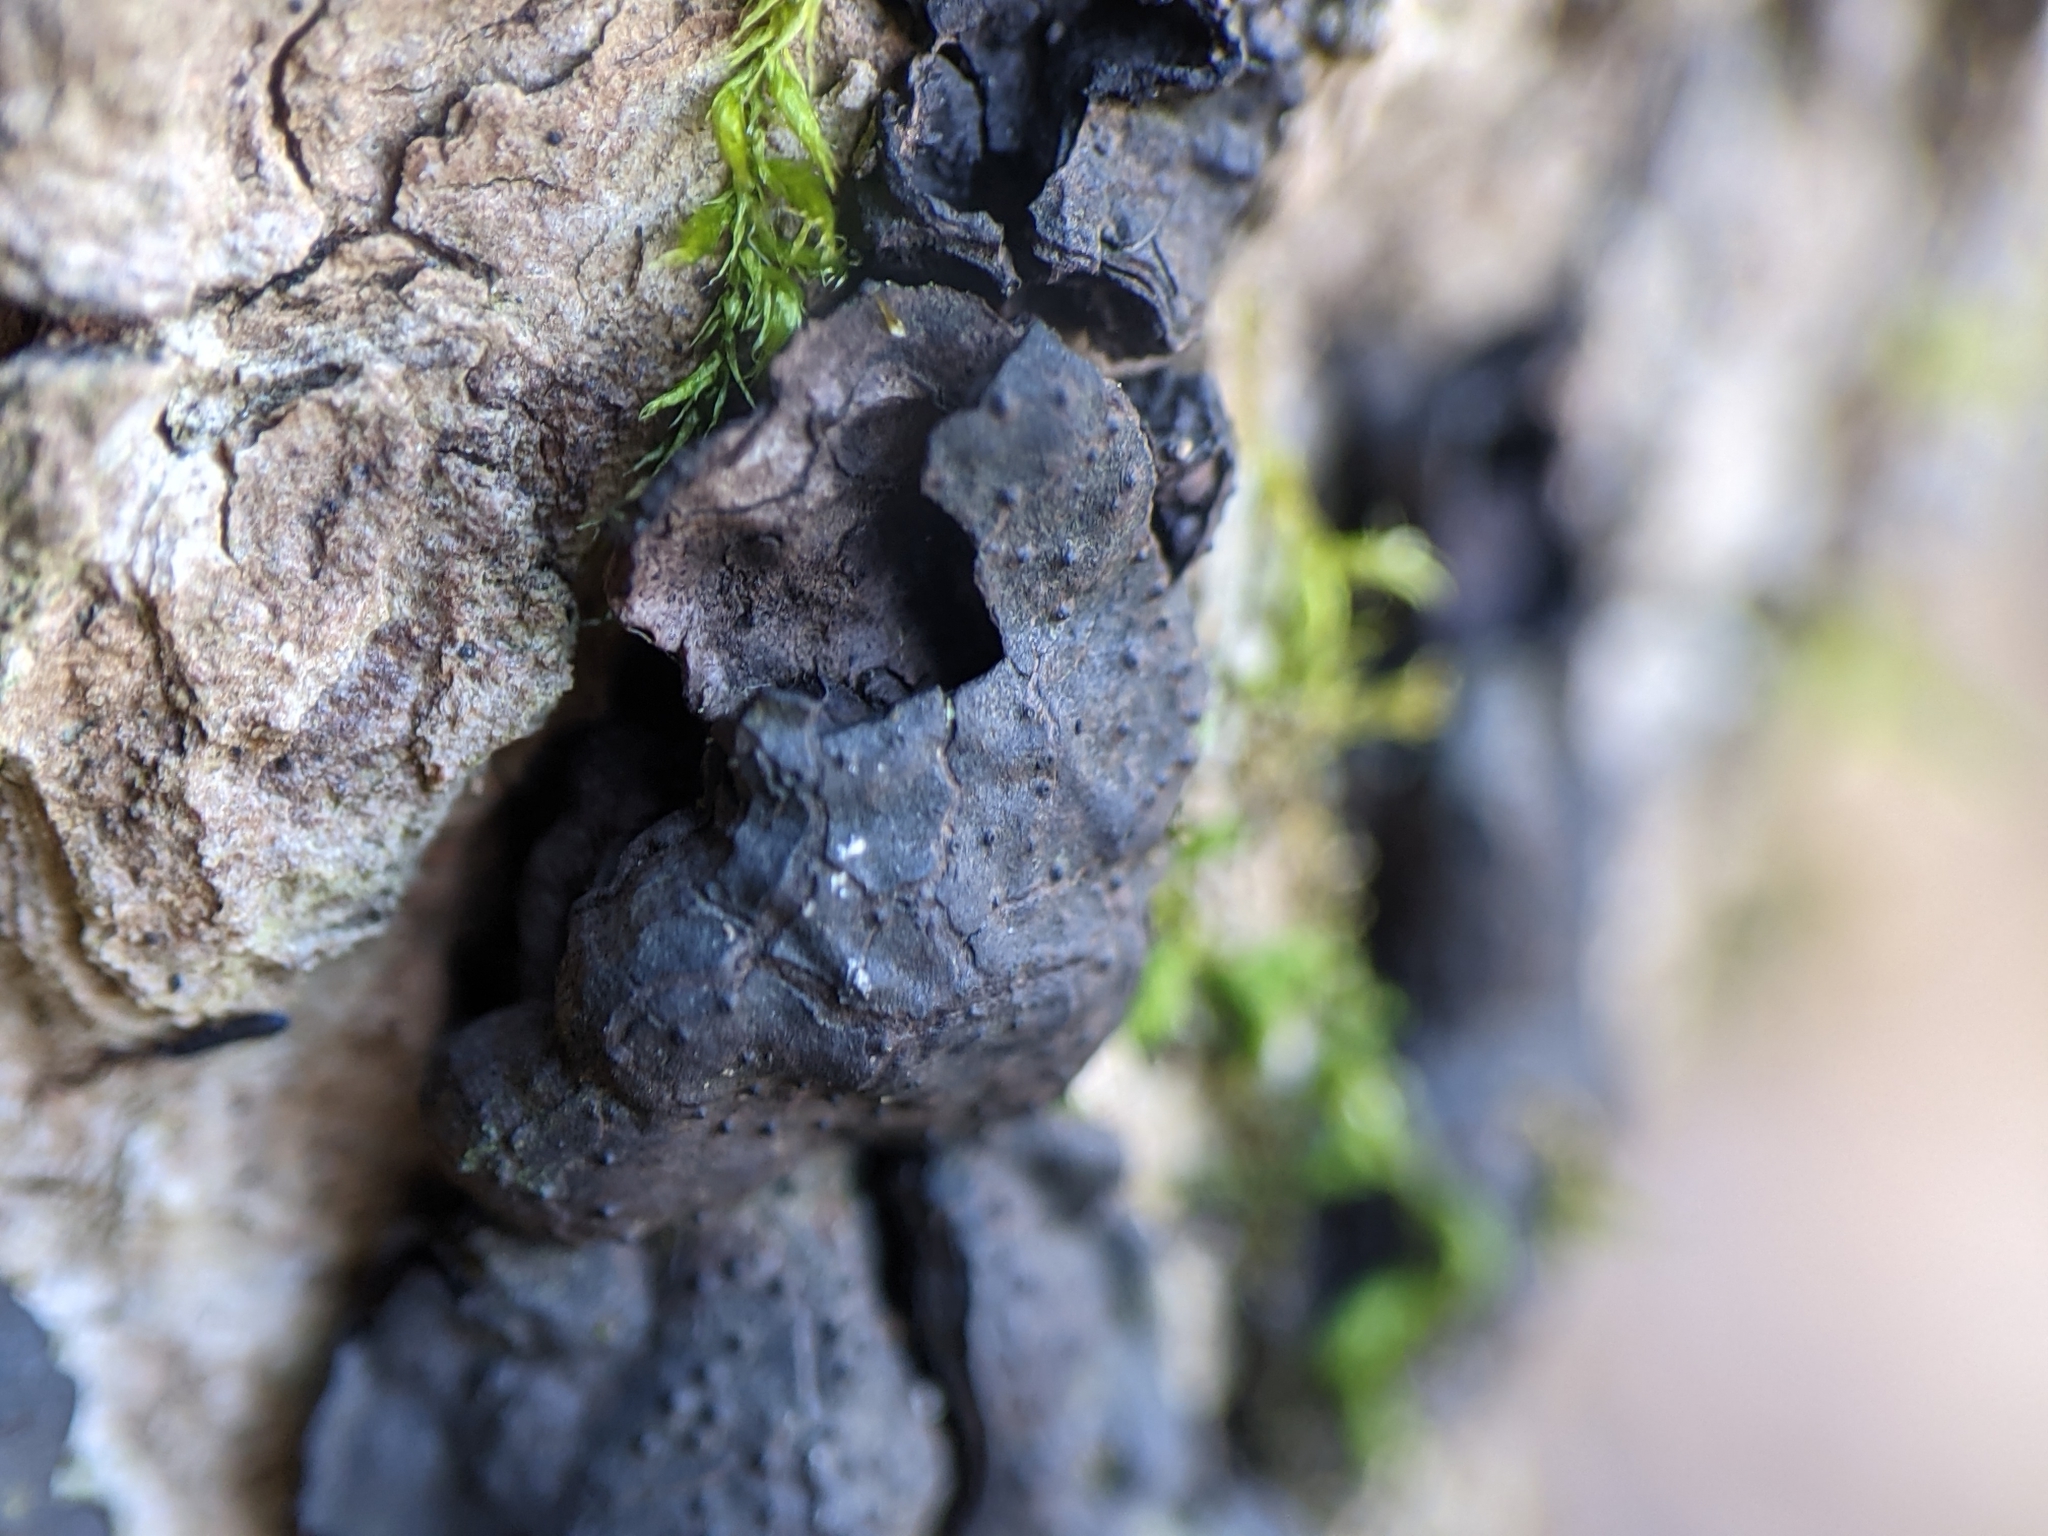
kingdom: Fungi
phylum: Ascomycota
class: Sordariomycetes
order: Xylariales
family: Xylariaceae
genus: Kretzschmaria
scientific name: Kretzschmaria deusta
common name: Brittle cinder
